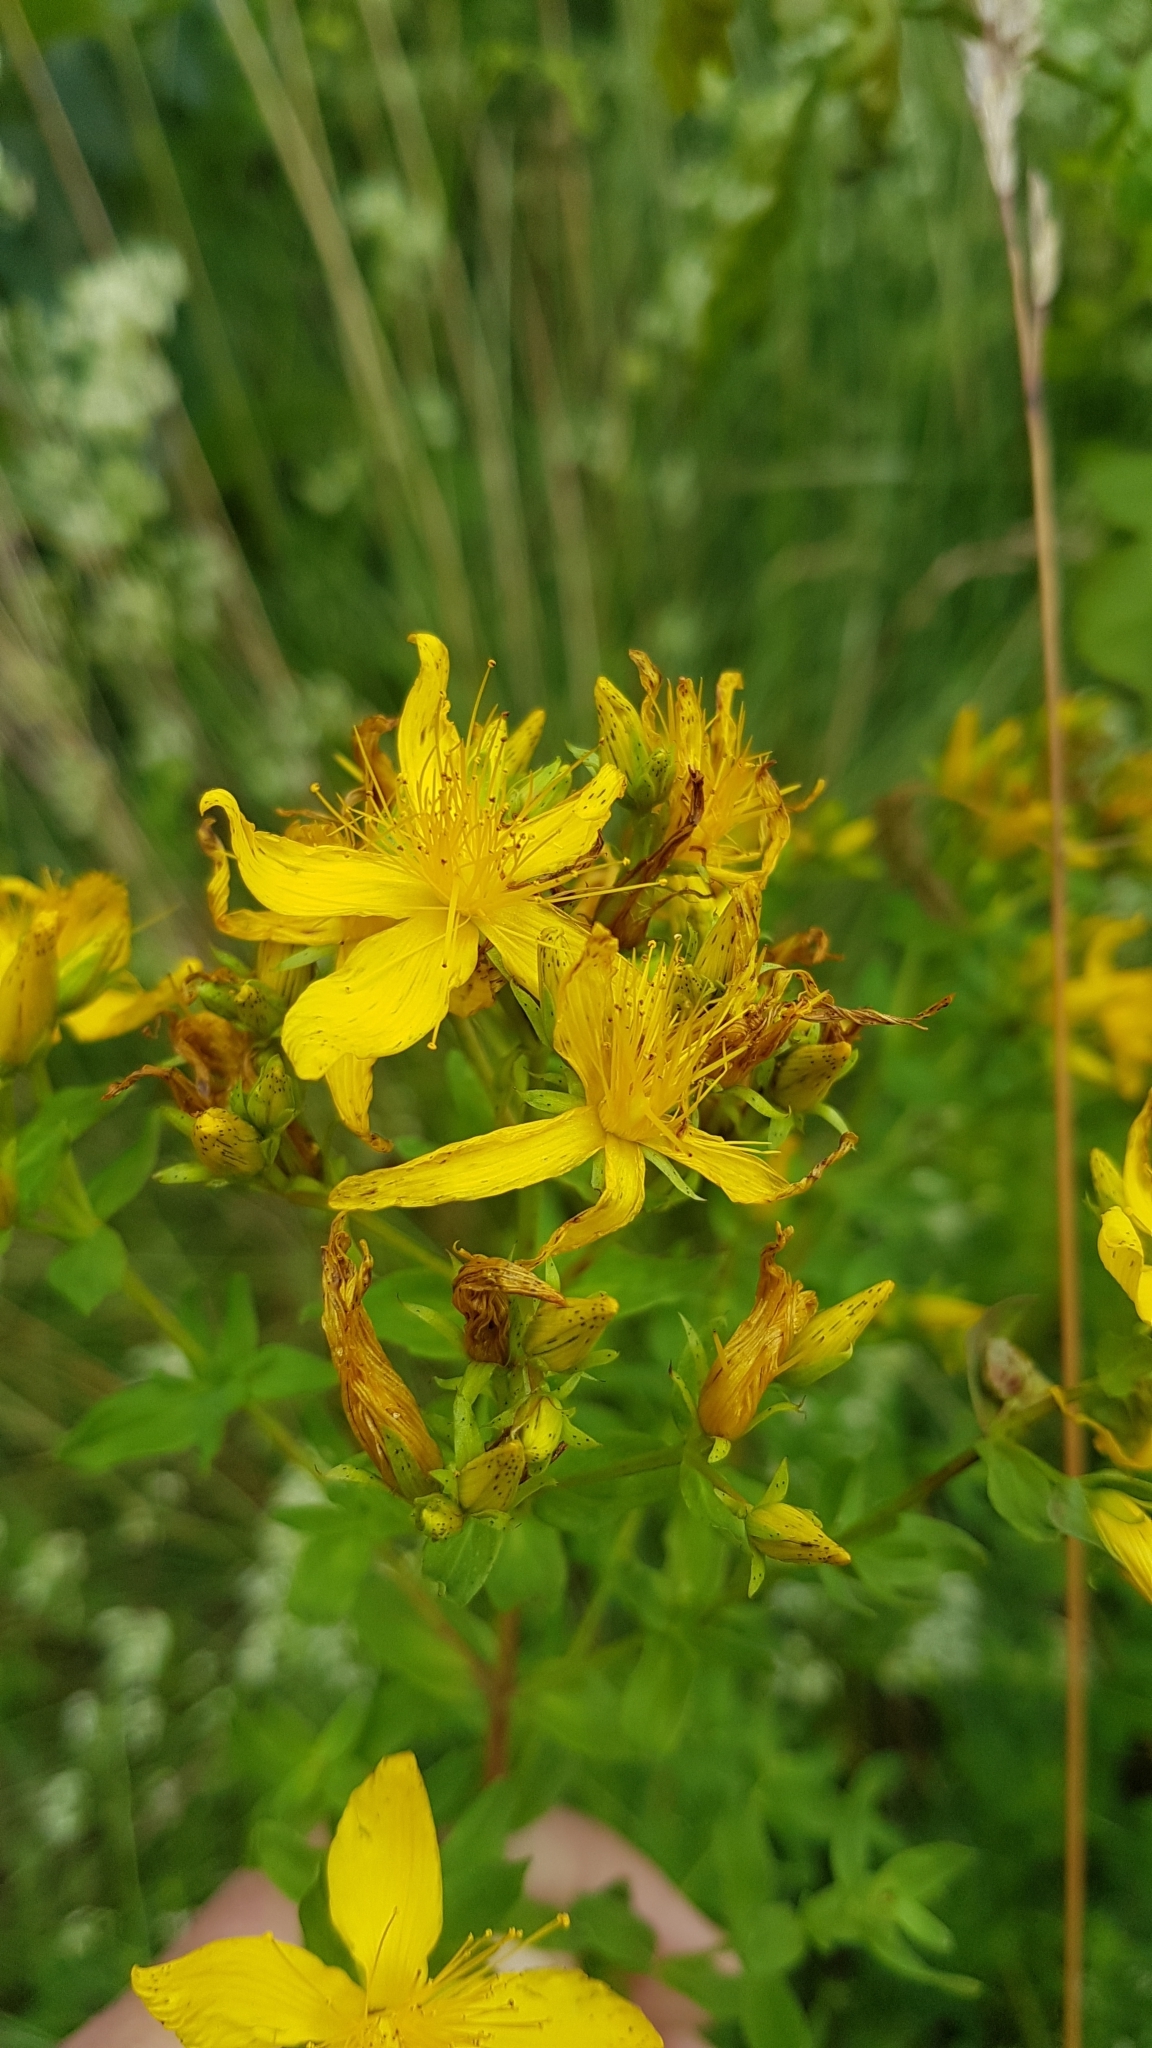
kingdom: Plantae
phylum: Tracheophyta
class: Magnoliopsida
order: Malpighiales
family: Hypericaceae
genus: Hypericum
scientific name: Hypericum perforatum
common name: Common st. johnswort
